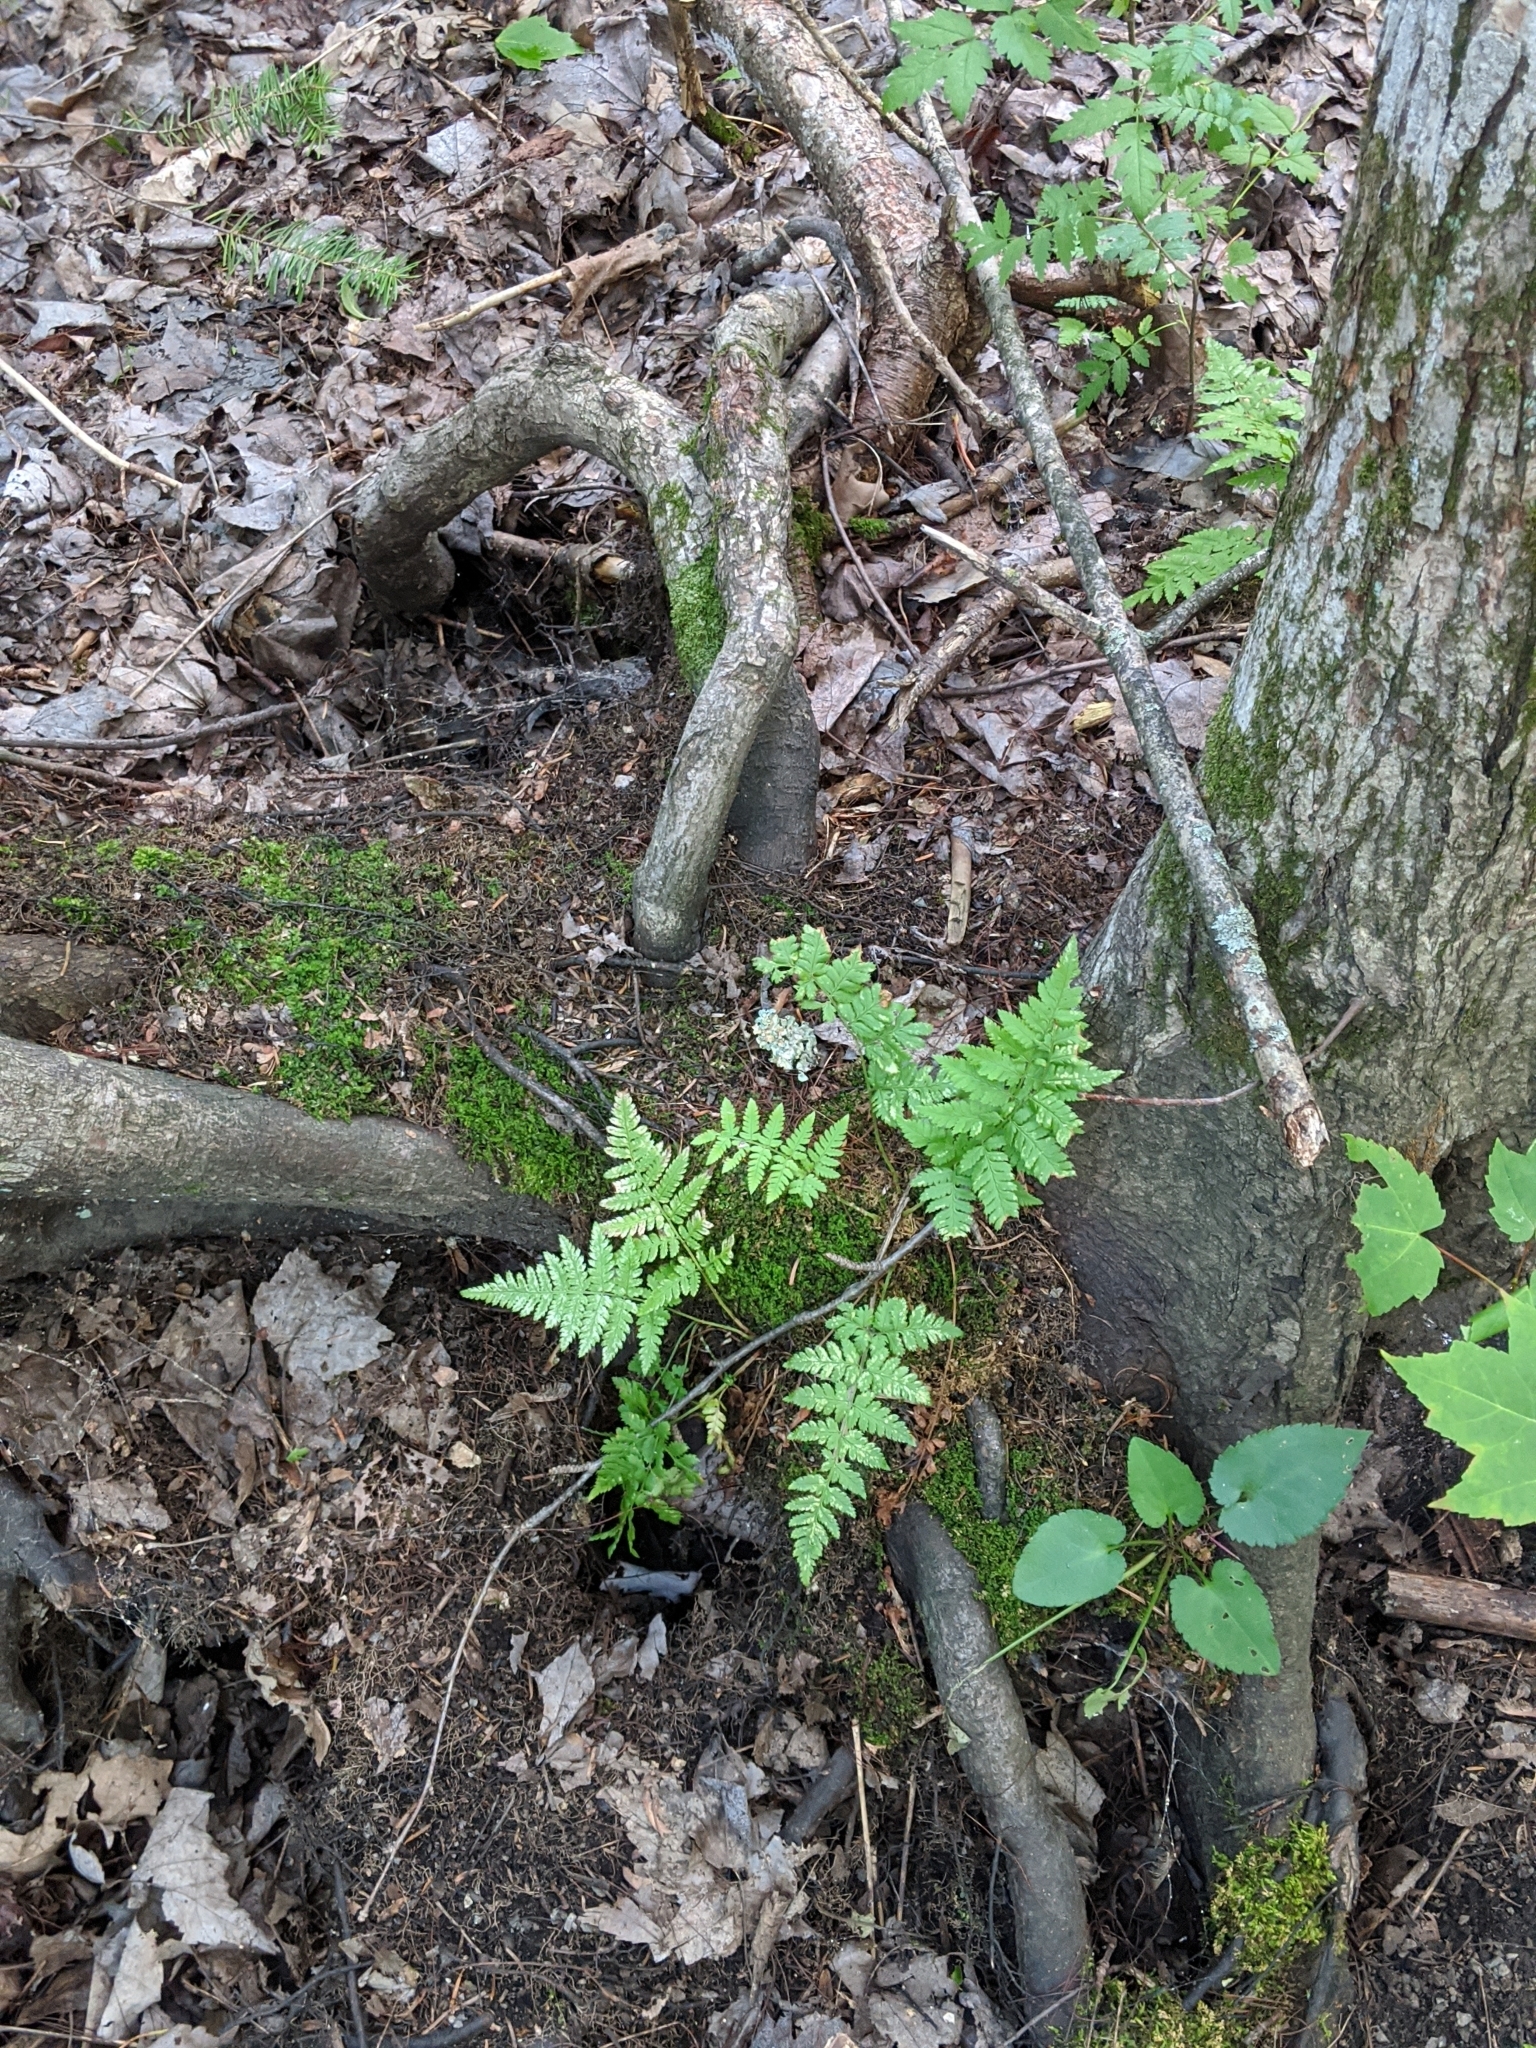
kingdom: Plantae
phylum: Tracheophyta
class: Polypodiopsida
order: Polypodiales
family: Dryopteridaceae
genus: Dryopteris
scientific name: Dryopteris carthusiana
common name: Narrow buckler-fern
